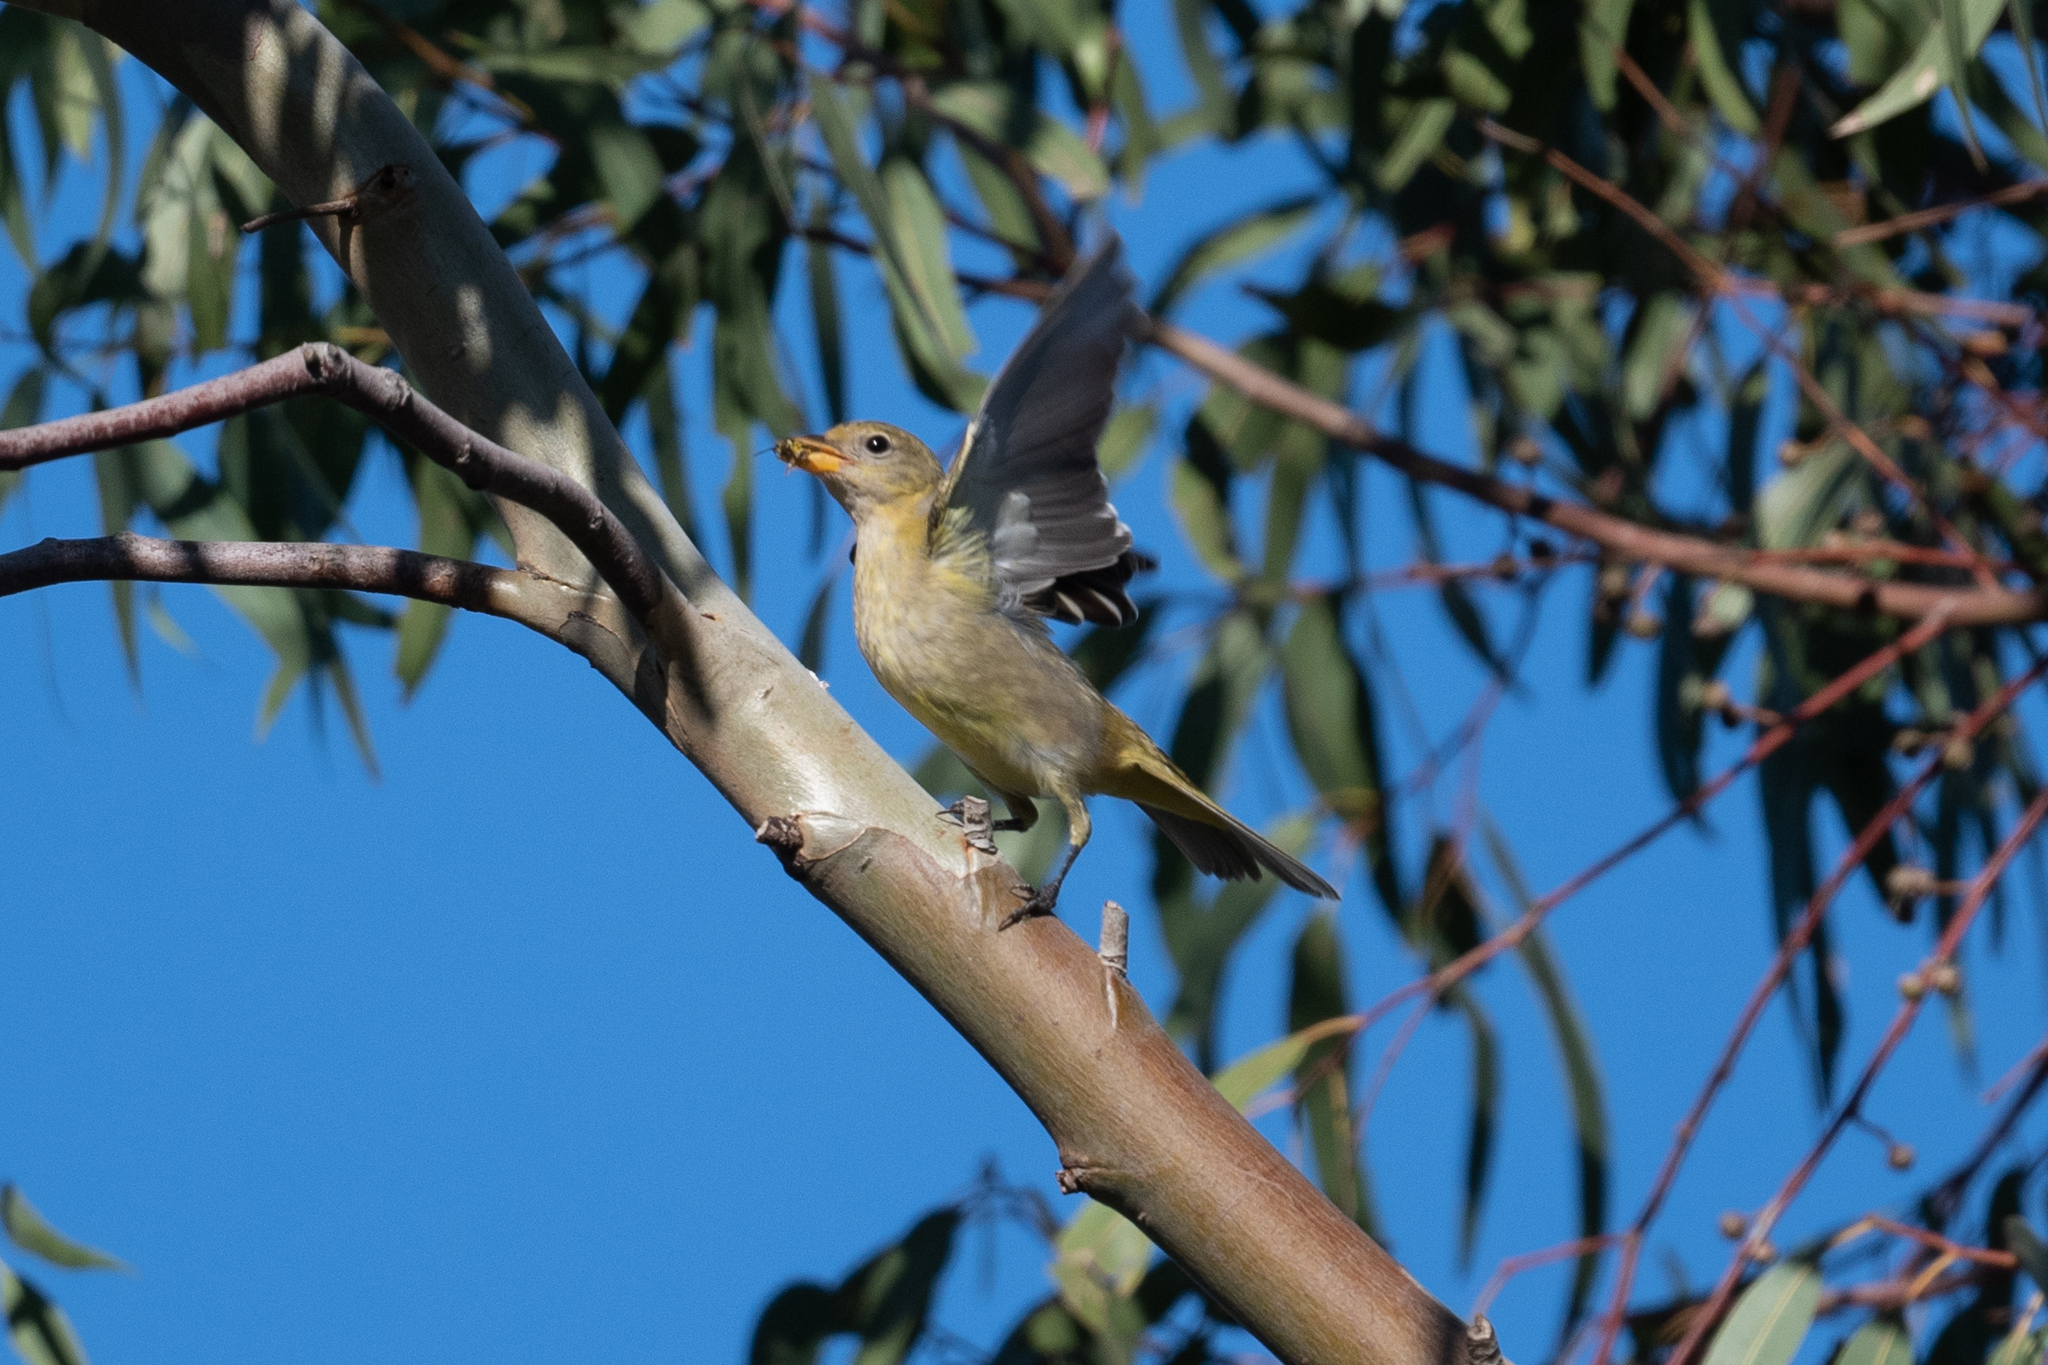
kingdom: Animalia
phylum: Chordata
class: Aves
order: Passeriformes
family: Cardinalidae
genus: Piranga
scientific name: Piranga ludoviciana
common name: Western tanager
